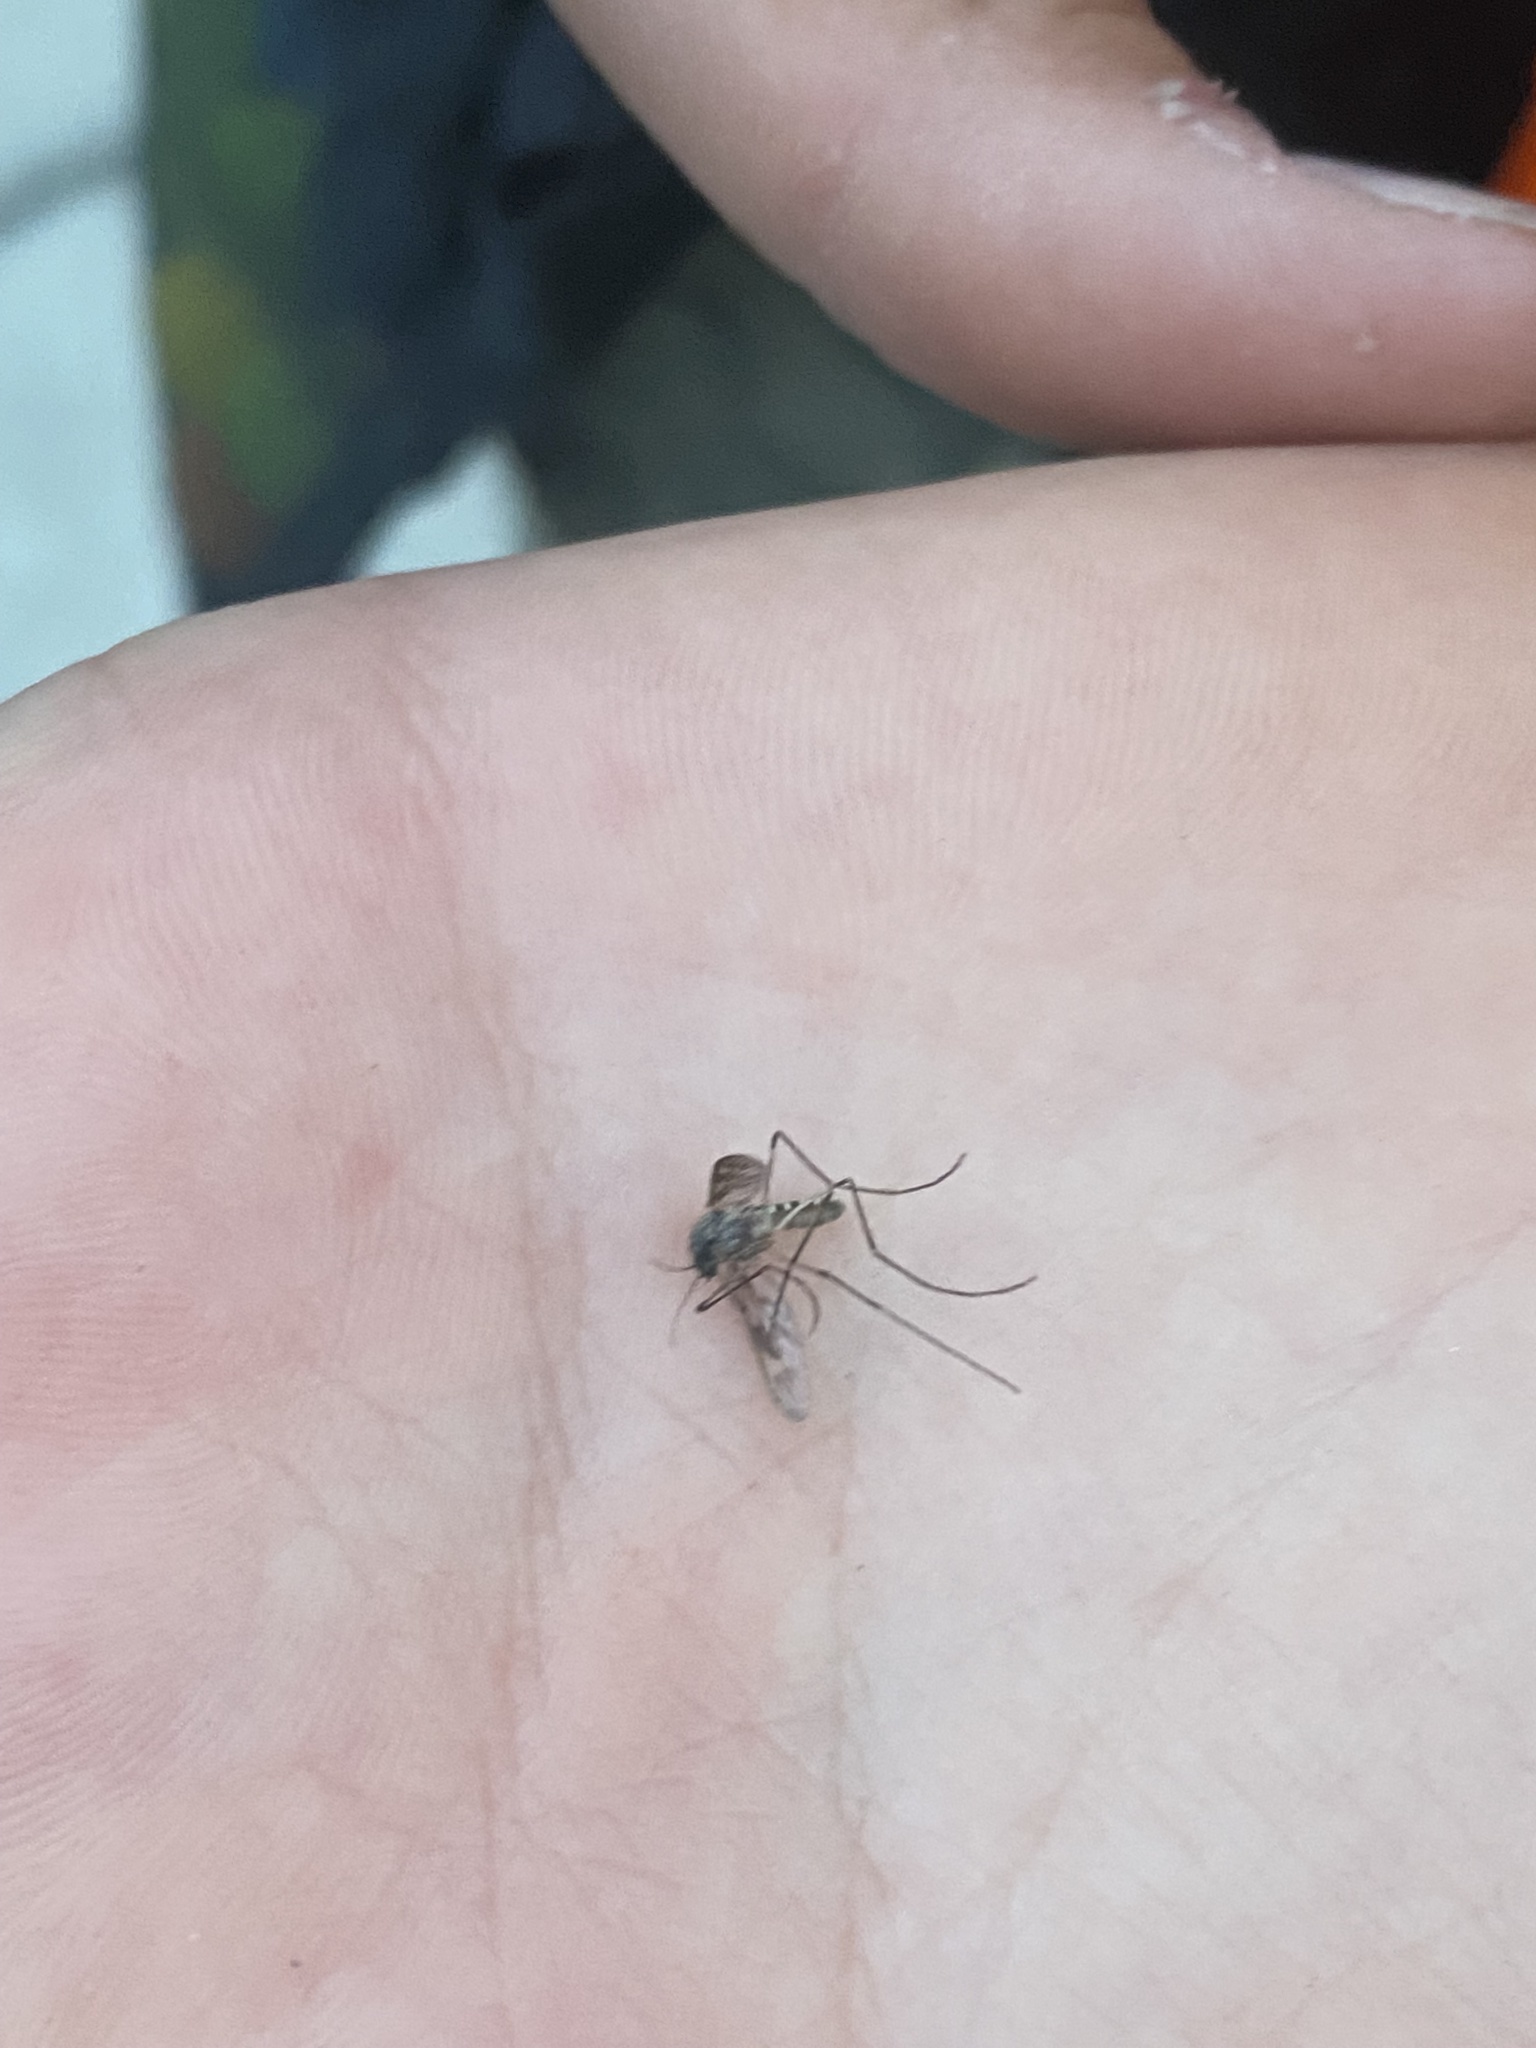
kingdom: Animalia
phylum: Arthropoda
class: Insecta
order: Diptera
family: Culicidae
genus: Culiseta
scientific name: Culiseta incidens
